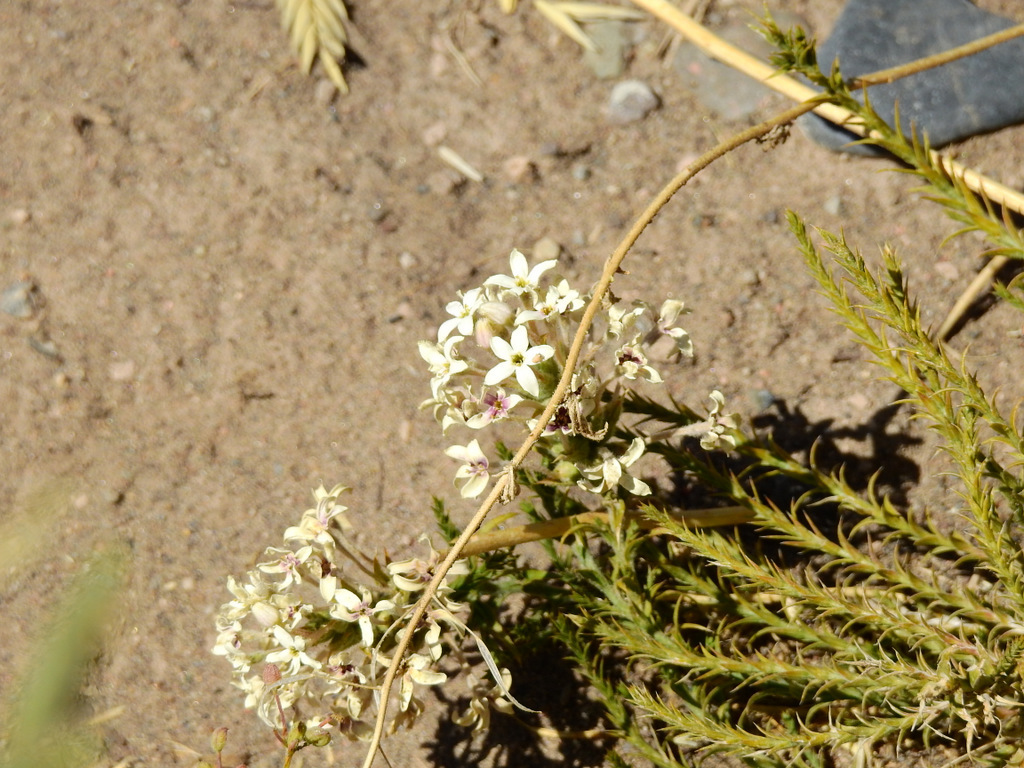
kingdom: Plantae
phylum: Tracheophyta
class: Magnoliopsida
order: Santalales
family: Schoepfiaceae
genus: Arjona
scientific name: Arjona patagonica
